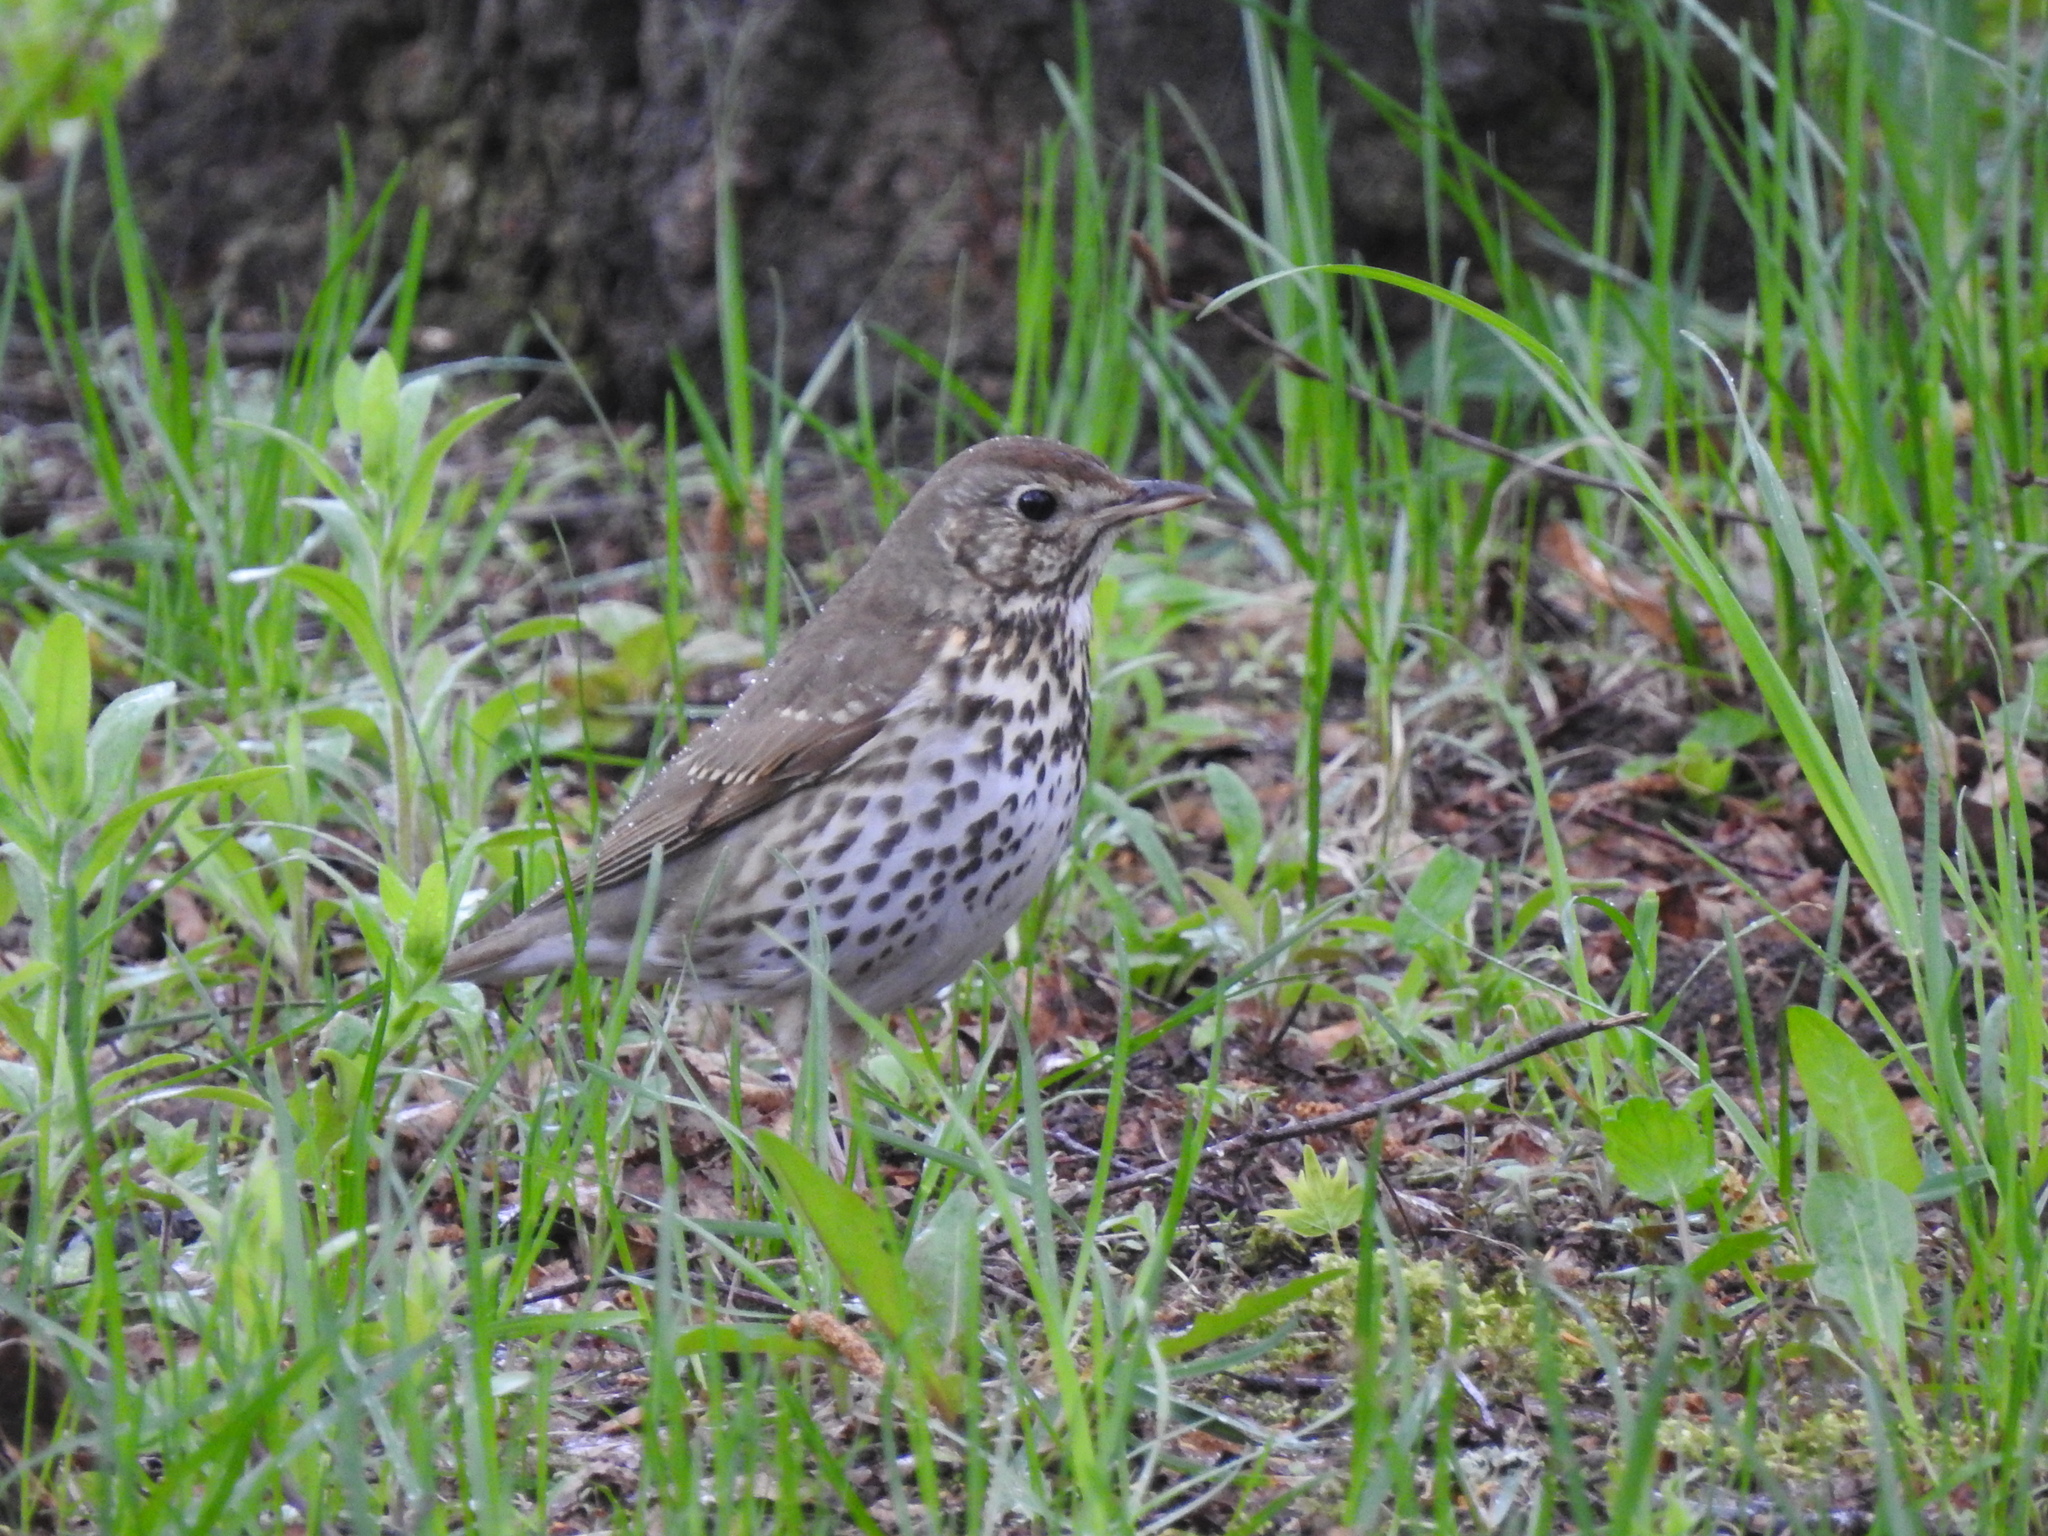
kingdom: Animalia
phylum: Chordata
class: Aves
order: Passeriformes
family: Turdidae
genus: Turdus
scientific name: Turdus philomelos
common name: Song thrush
